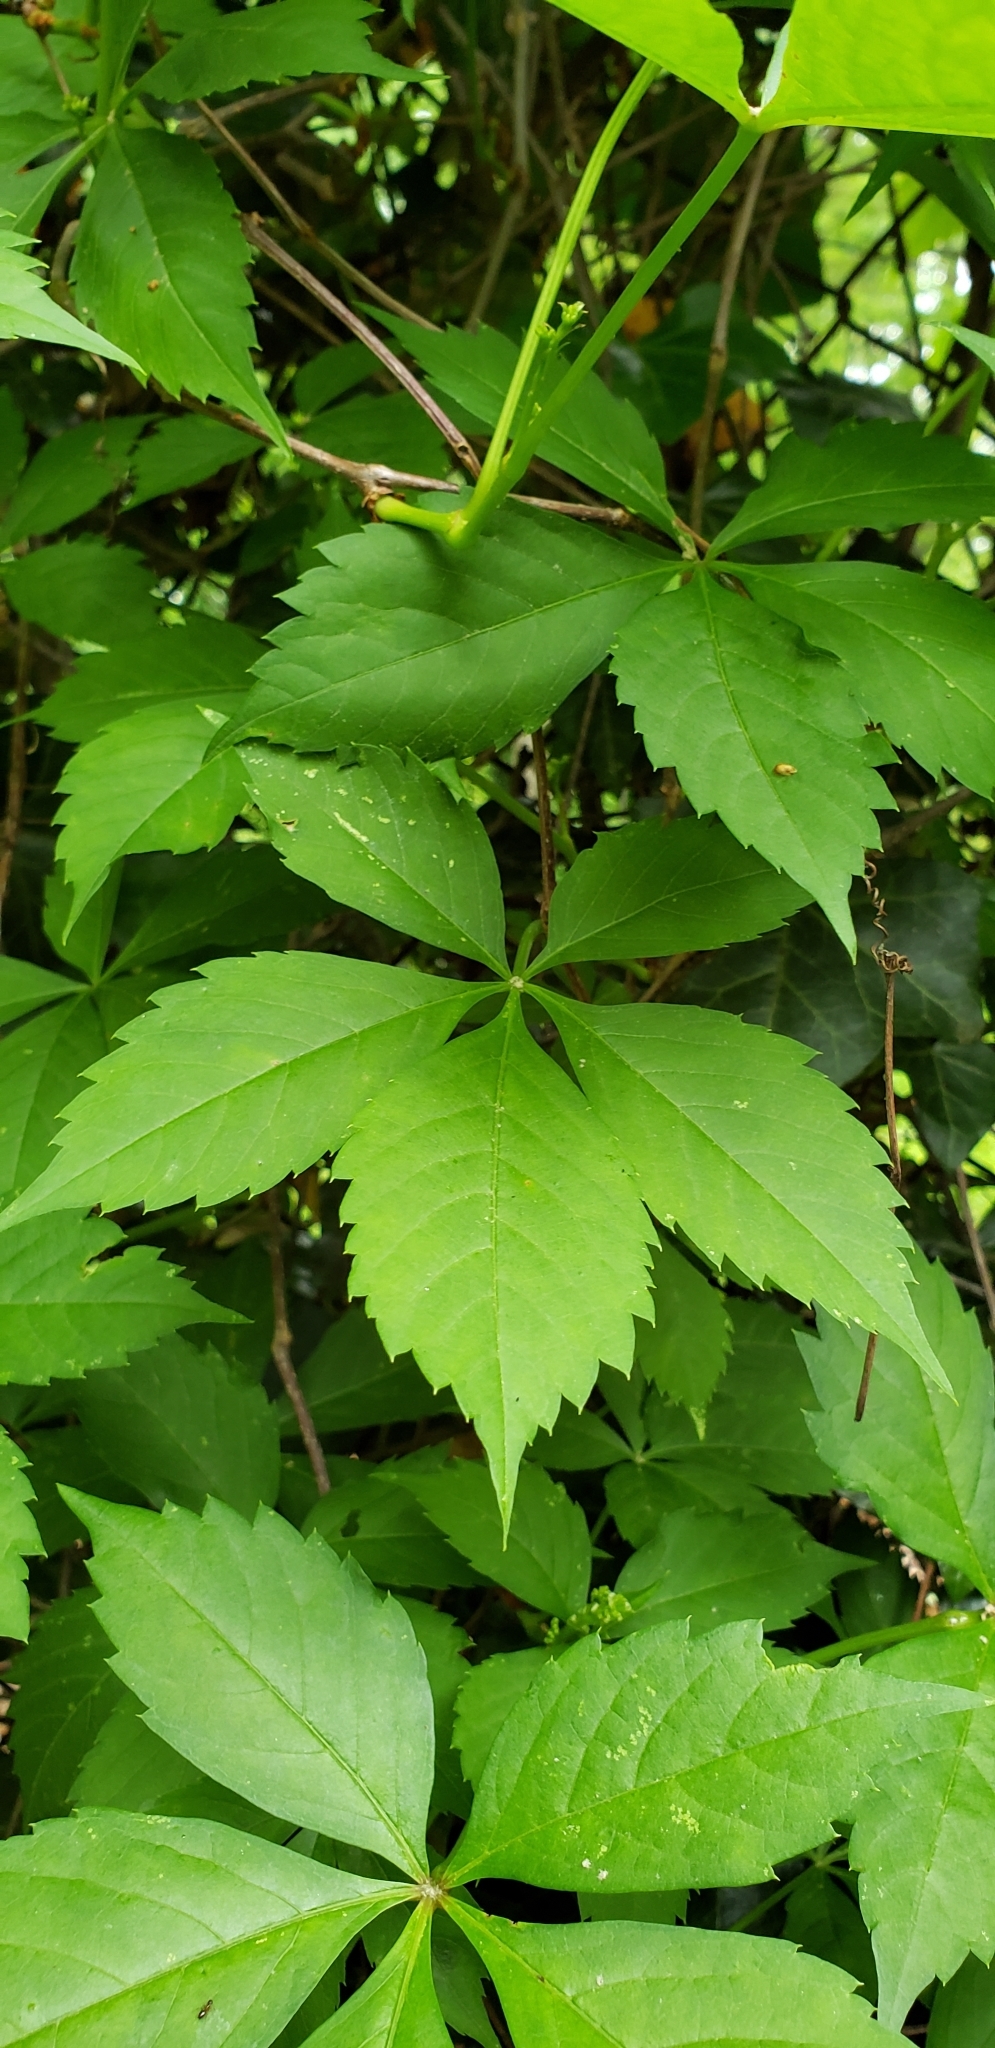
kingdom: Plantae
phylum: Tracheophyta
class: Magnoliopsida
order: Vitales
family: Vitaceae
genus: Parthenocissus
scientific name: Parthenocissus quinquefolia
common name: Virginia-creeper
